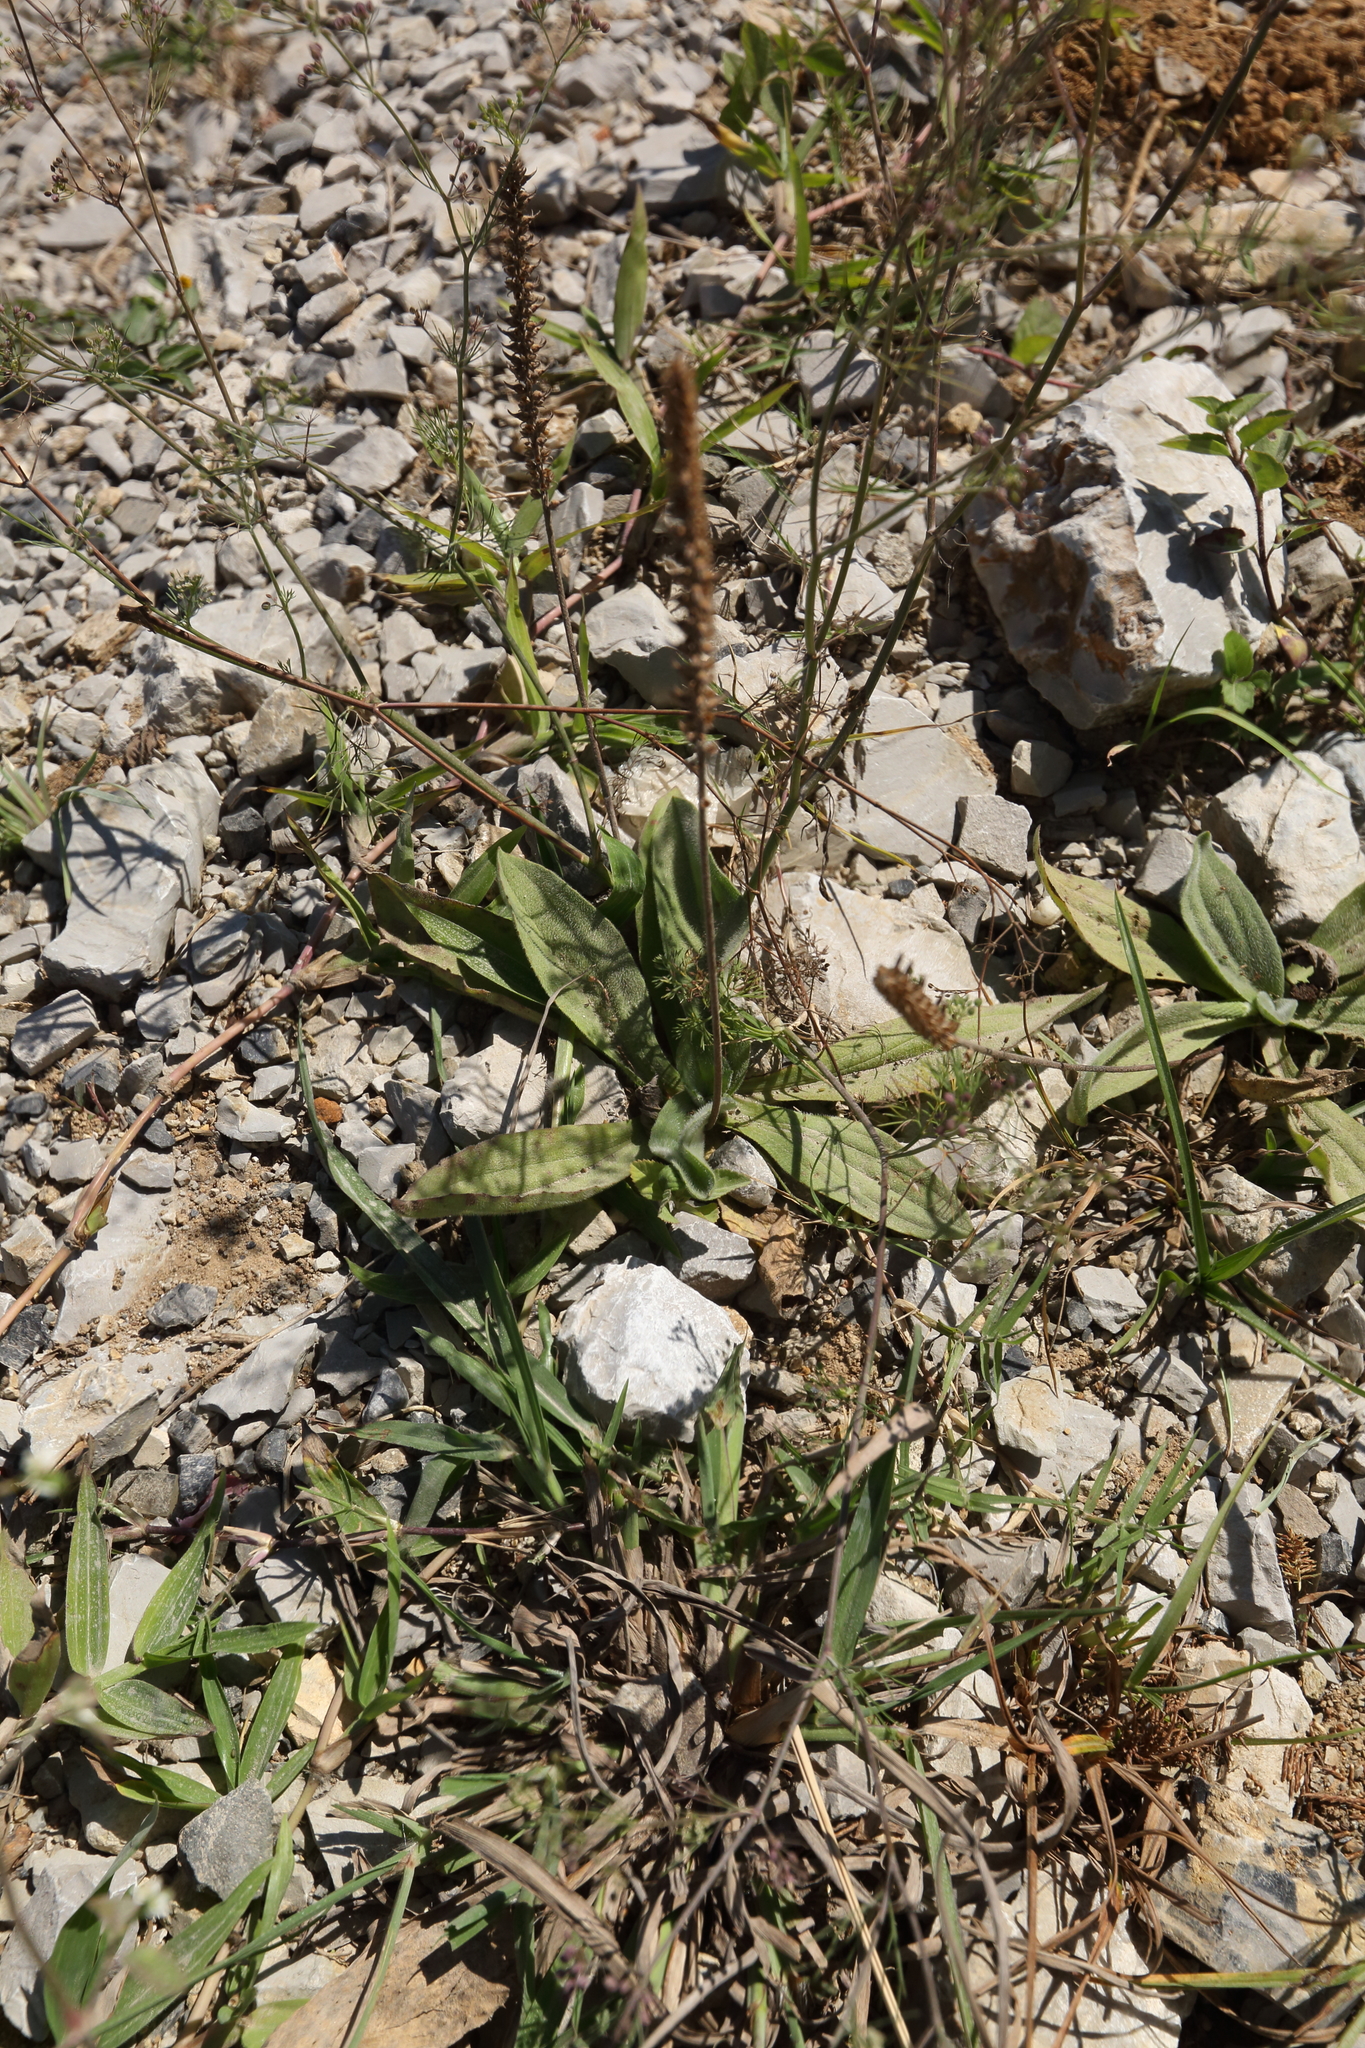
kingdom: Plantae
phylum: Tracheophyta
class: Magnoliopsida
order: Lamiales
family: Plantaginaceae
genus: Plantago
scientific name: Plantago lanceolata
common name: Ribwort plantain
